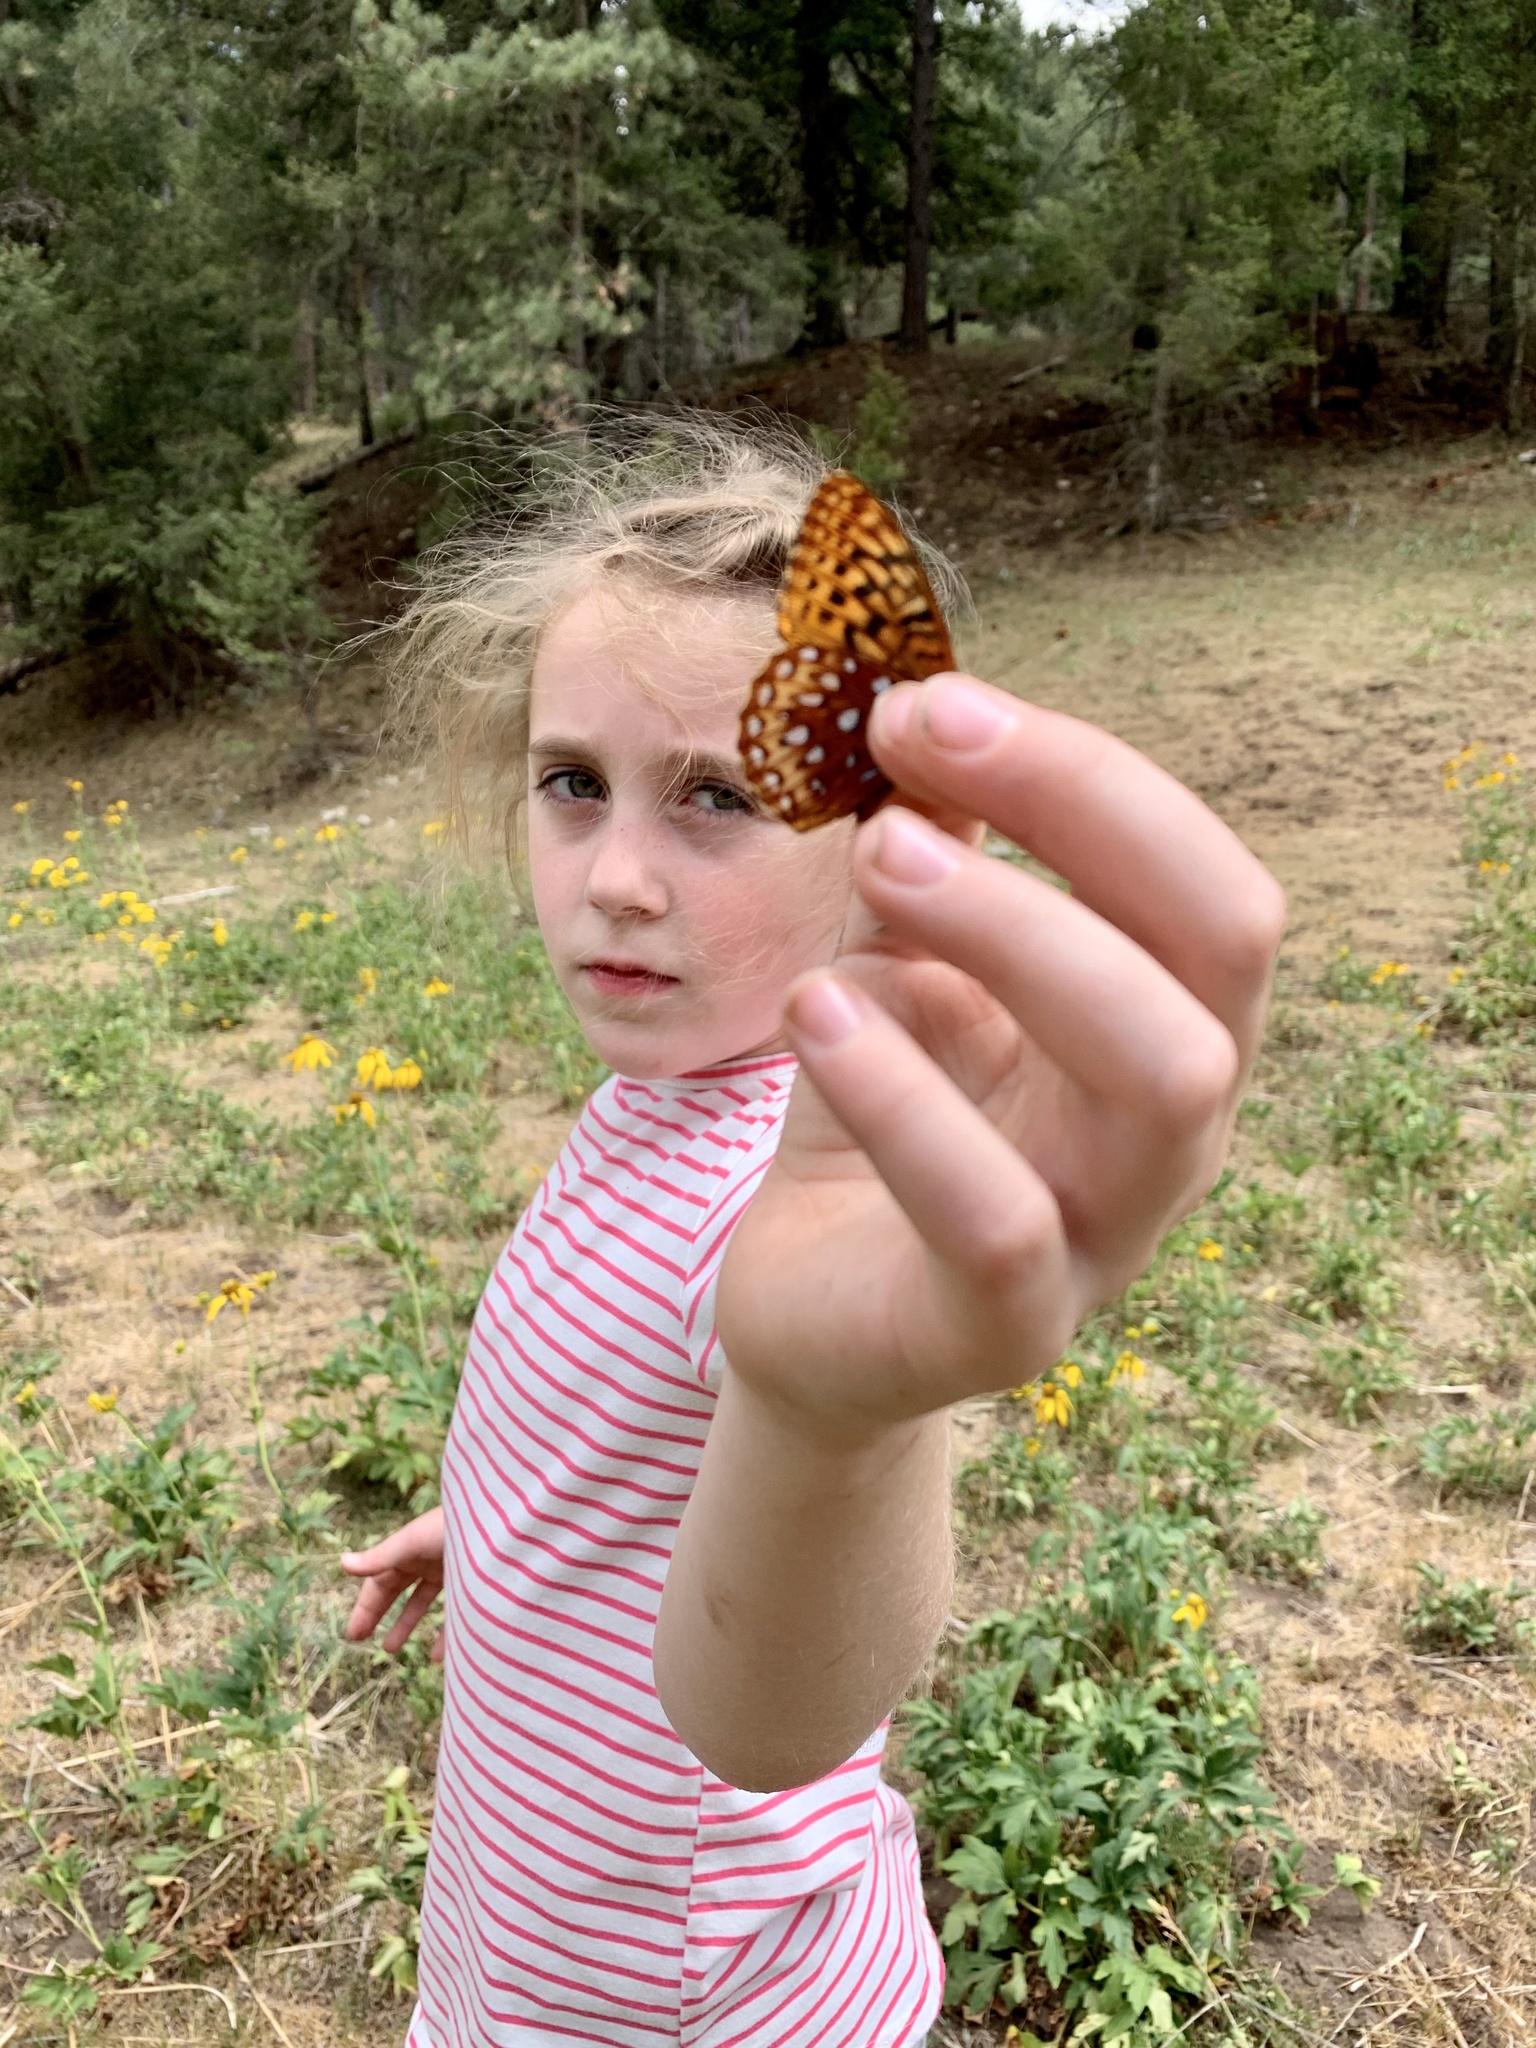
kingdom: Animalia
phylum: Arthropoda
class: Insecta
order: Lepidoptera
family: Nymphalidae
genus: Speyeria
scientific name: Speyeria atlantis
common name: Atlantis fritillary
